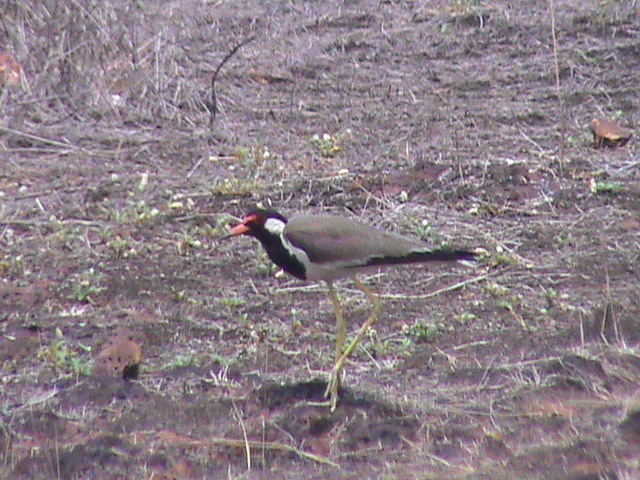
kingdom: Animalia
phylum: Chordata
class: Aves
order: Charadriiformes
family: Charadriidae
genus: Vanellus
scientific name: Vanellus indicus
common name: Red-wattled lapwing
